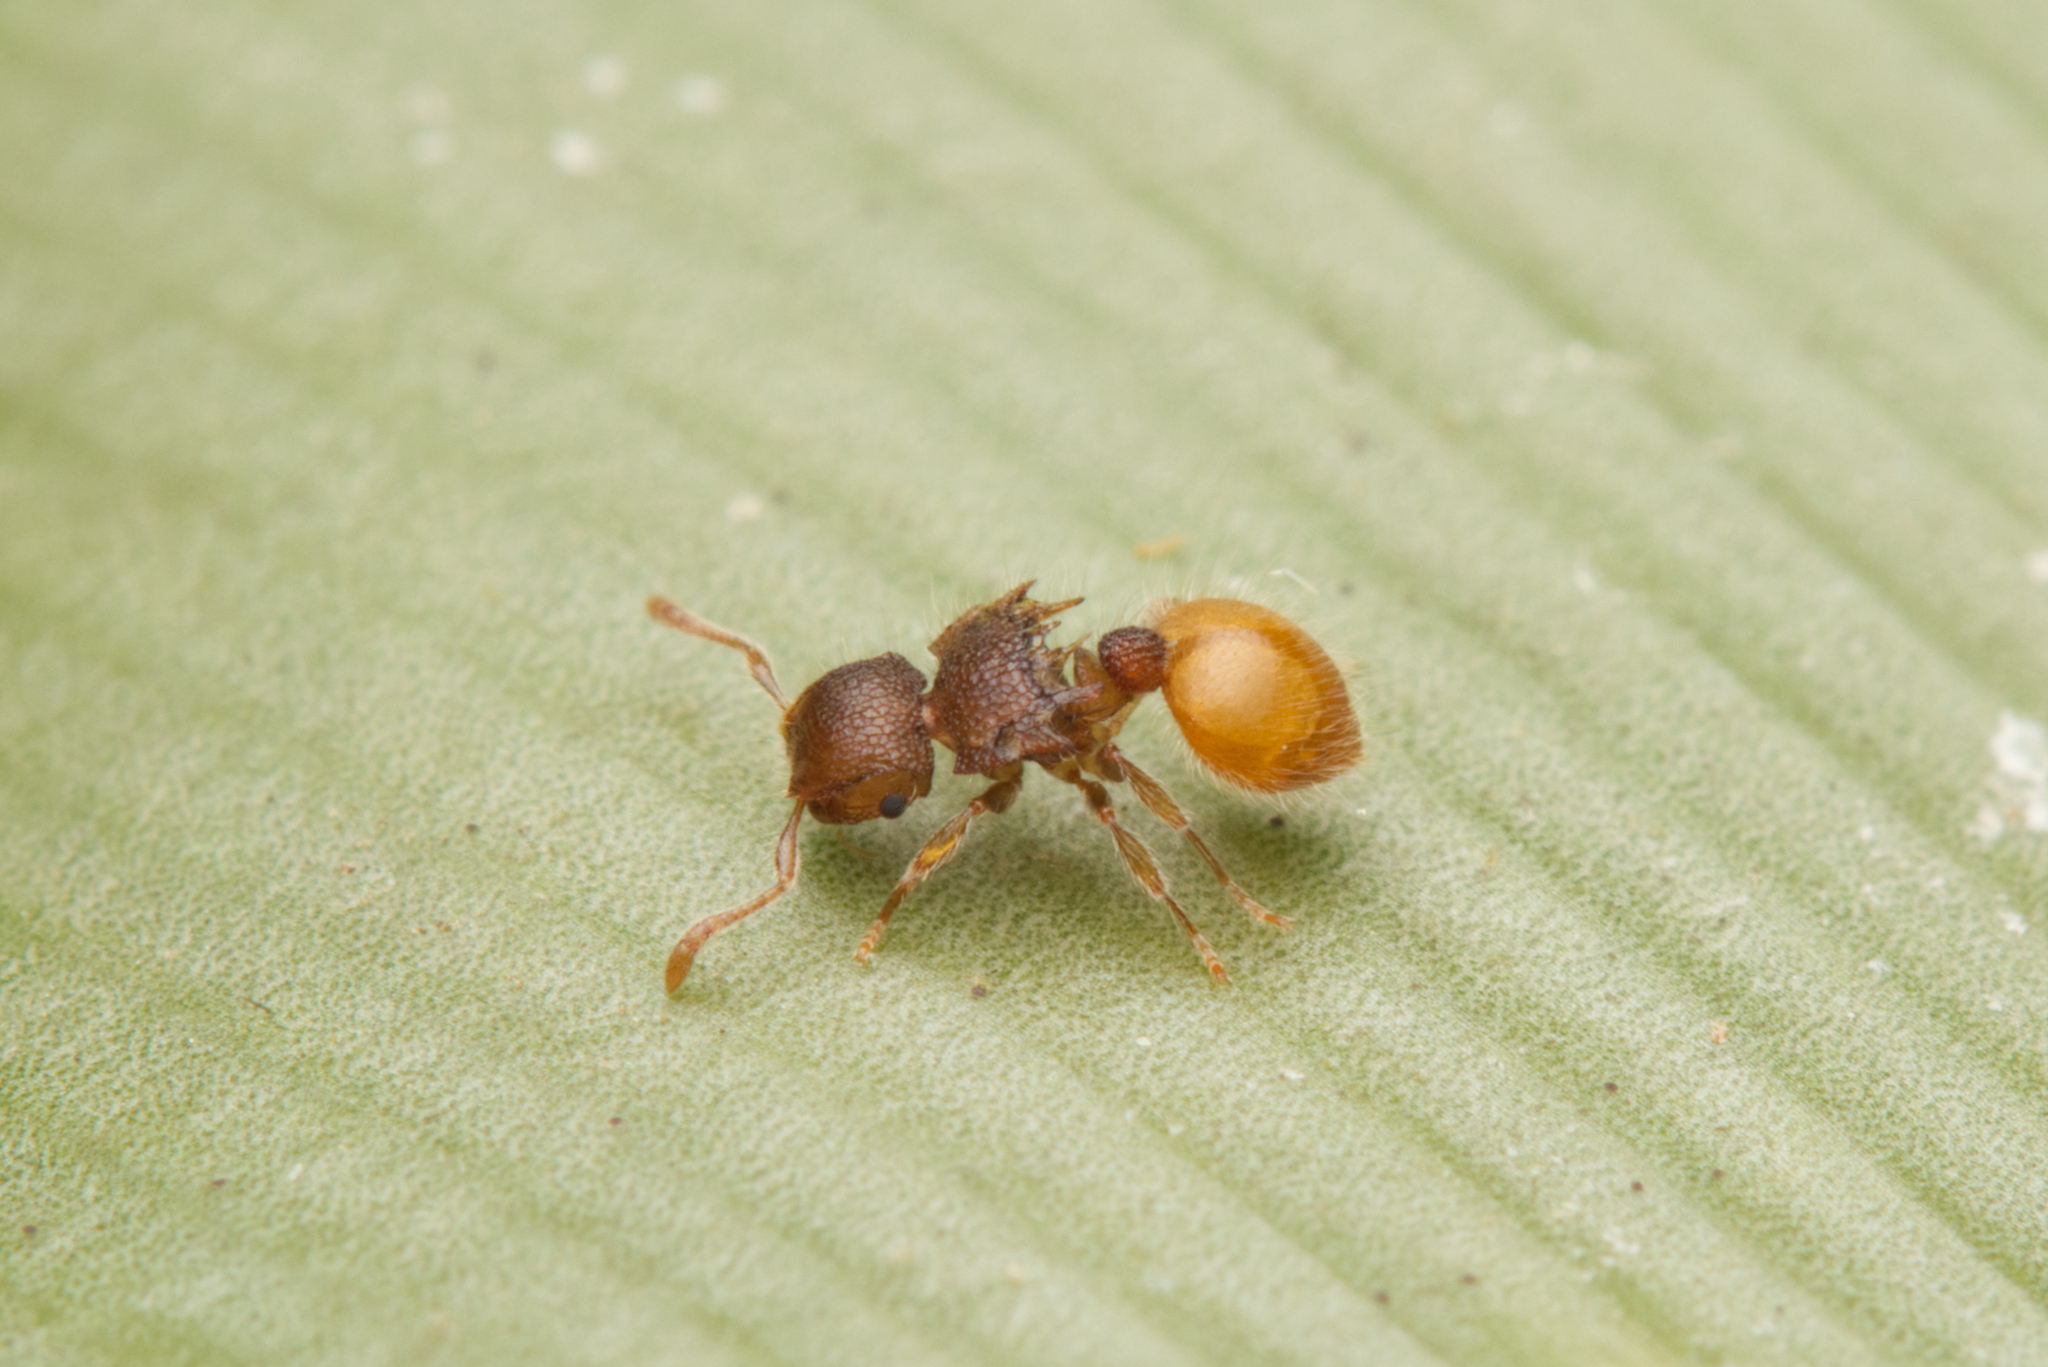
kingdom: Animalia
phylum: Arthropoda
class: Insecta
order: Hymenoptera
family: Formicidae
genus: Meranoplus
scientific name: Meranoplus hirsutus
